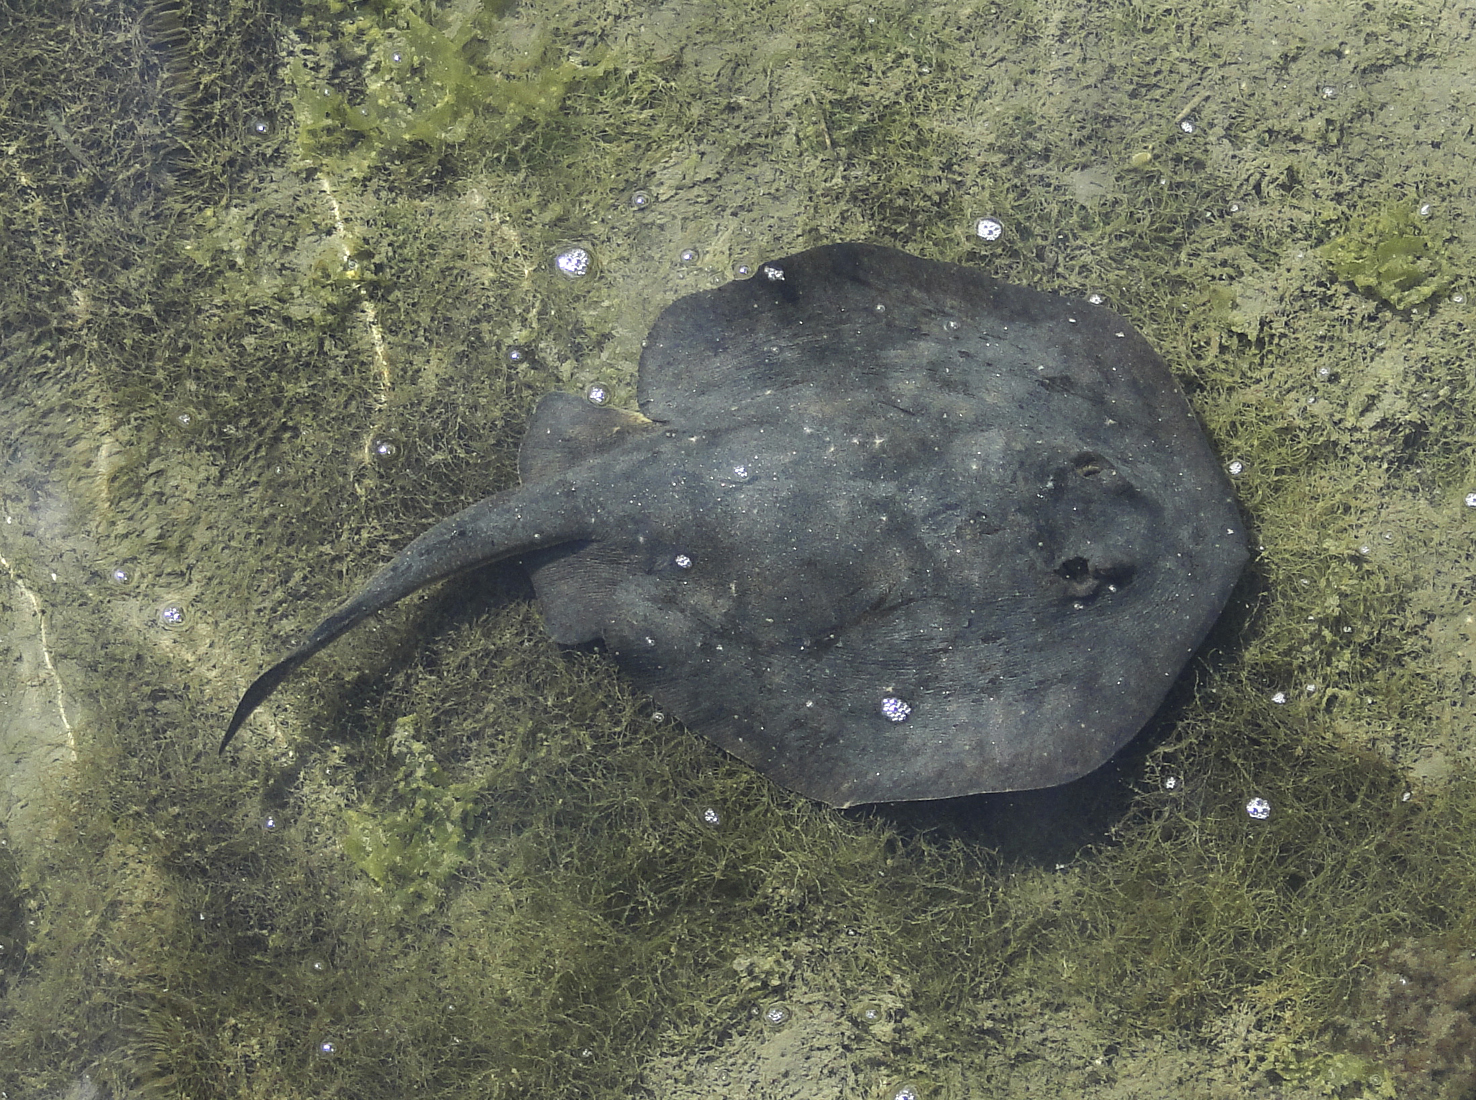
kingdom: Animalia
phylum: Chordata
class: Elasmobranchii
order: Myliobatiformes
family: Urolophidae
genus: Urolophus
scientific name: Urolophus halleri
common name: Round stingray
